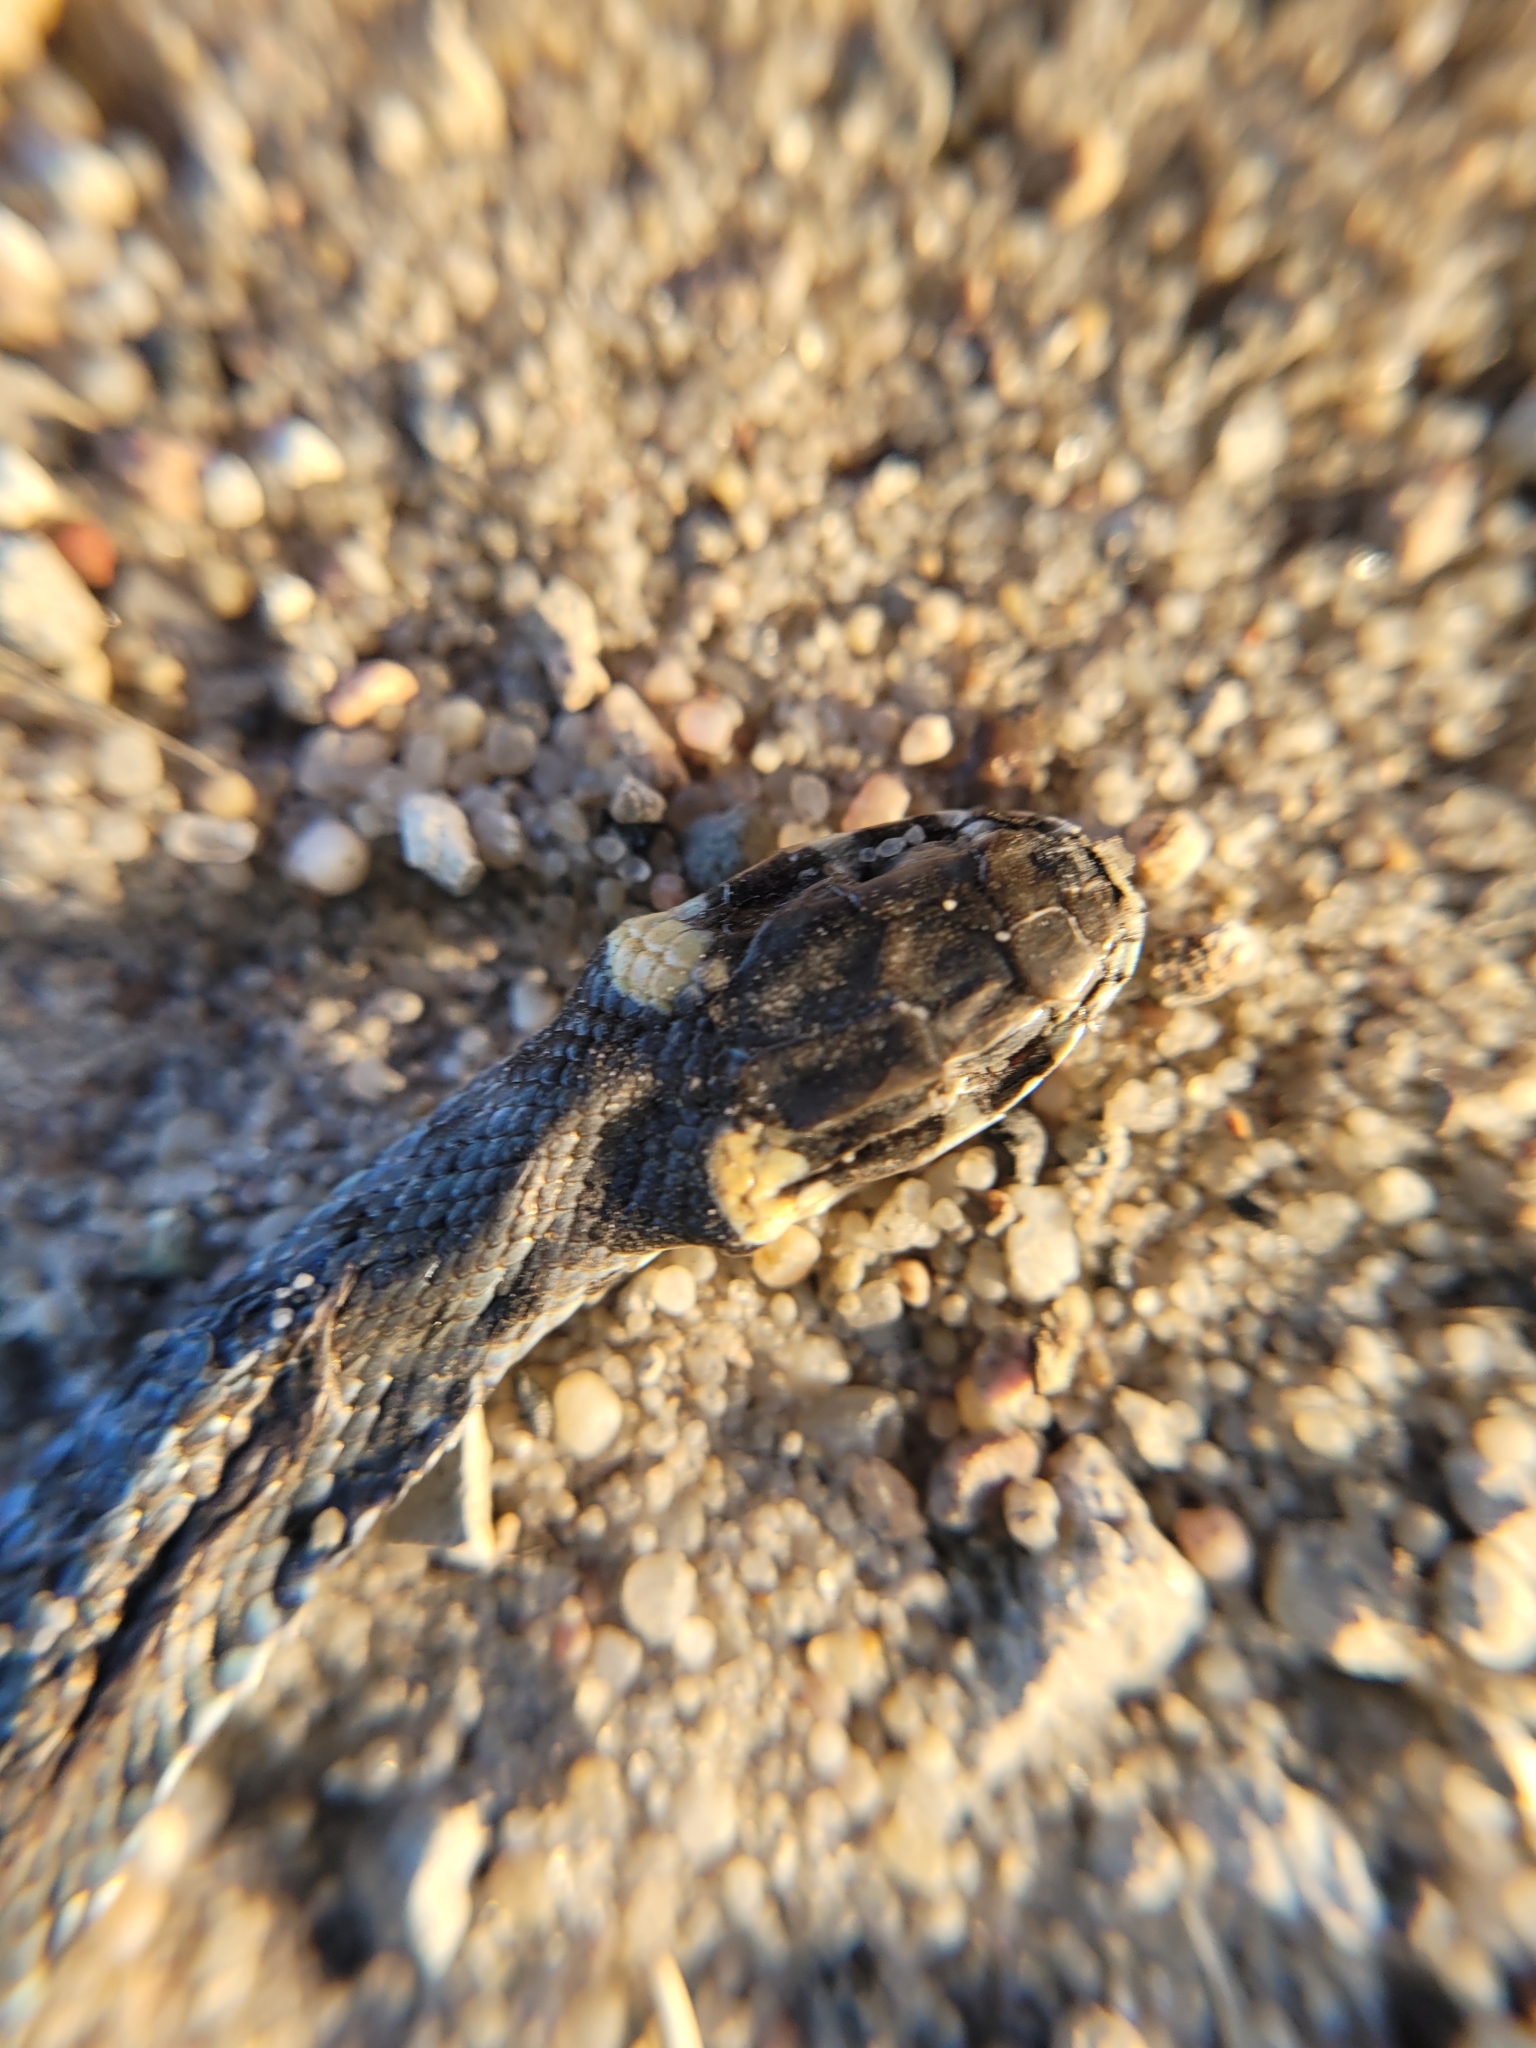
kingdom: Animalia
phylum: Chordata
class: Squamata
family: Colubridae
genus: Natrix
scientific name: Natrix natrix
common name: Grass snake
